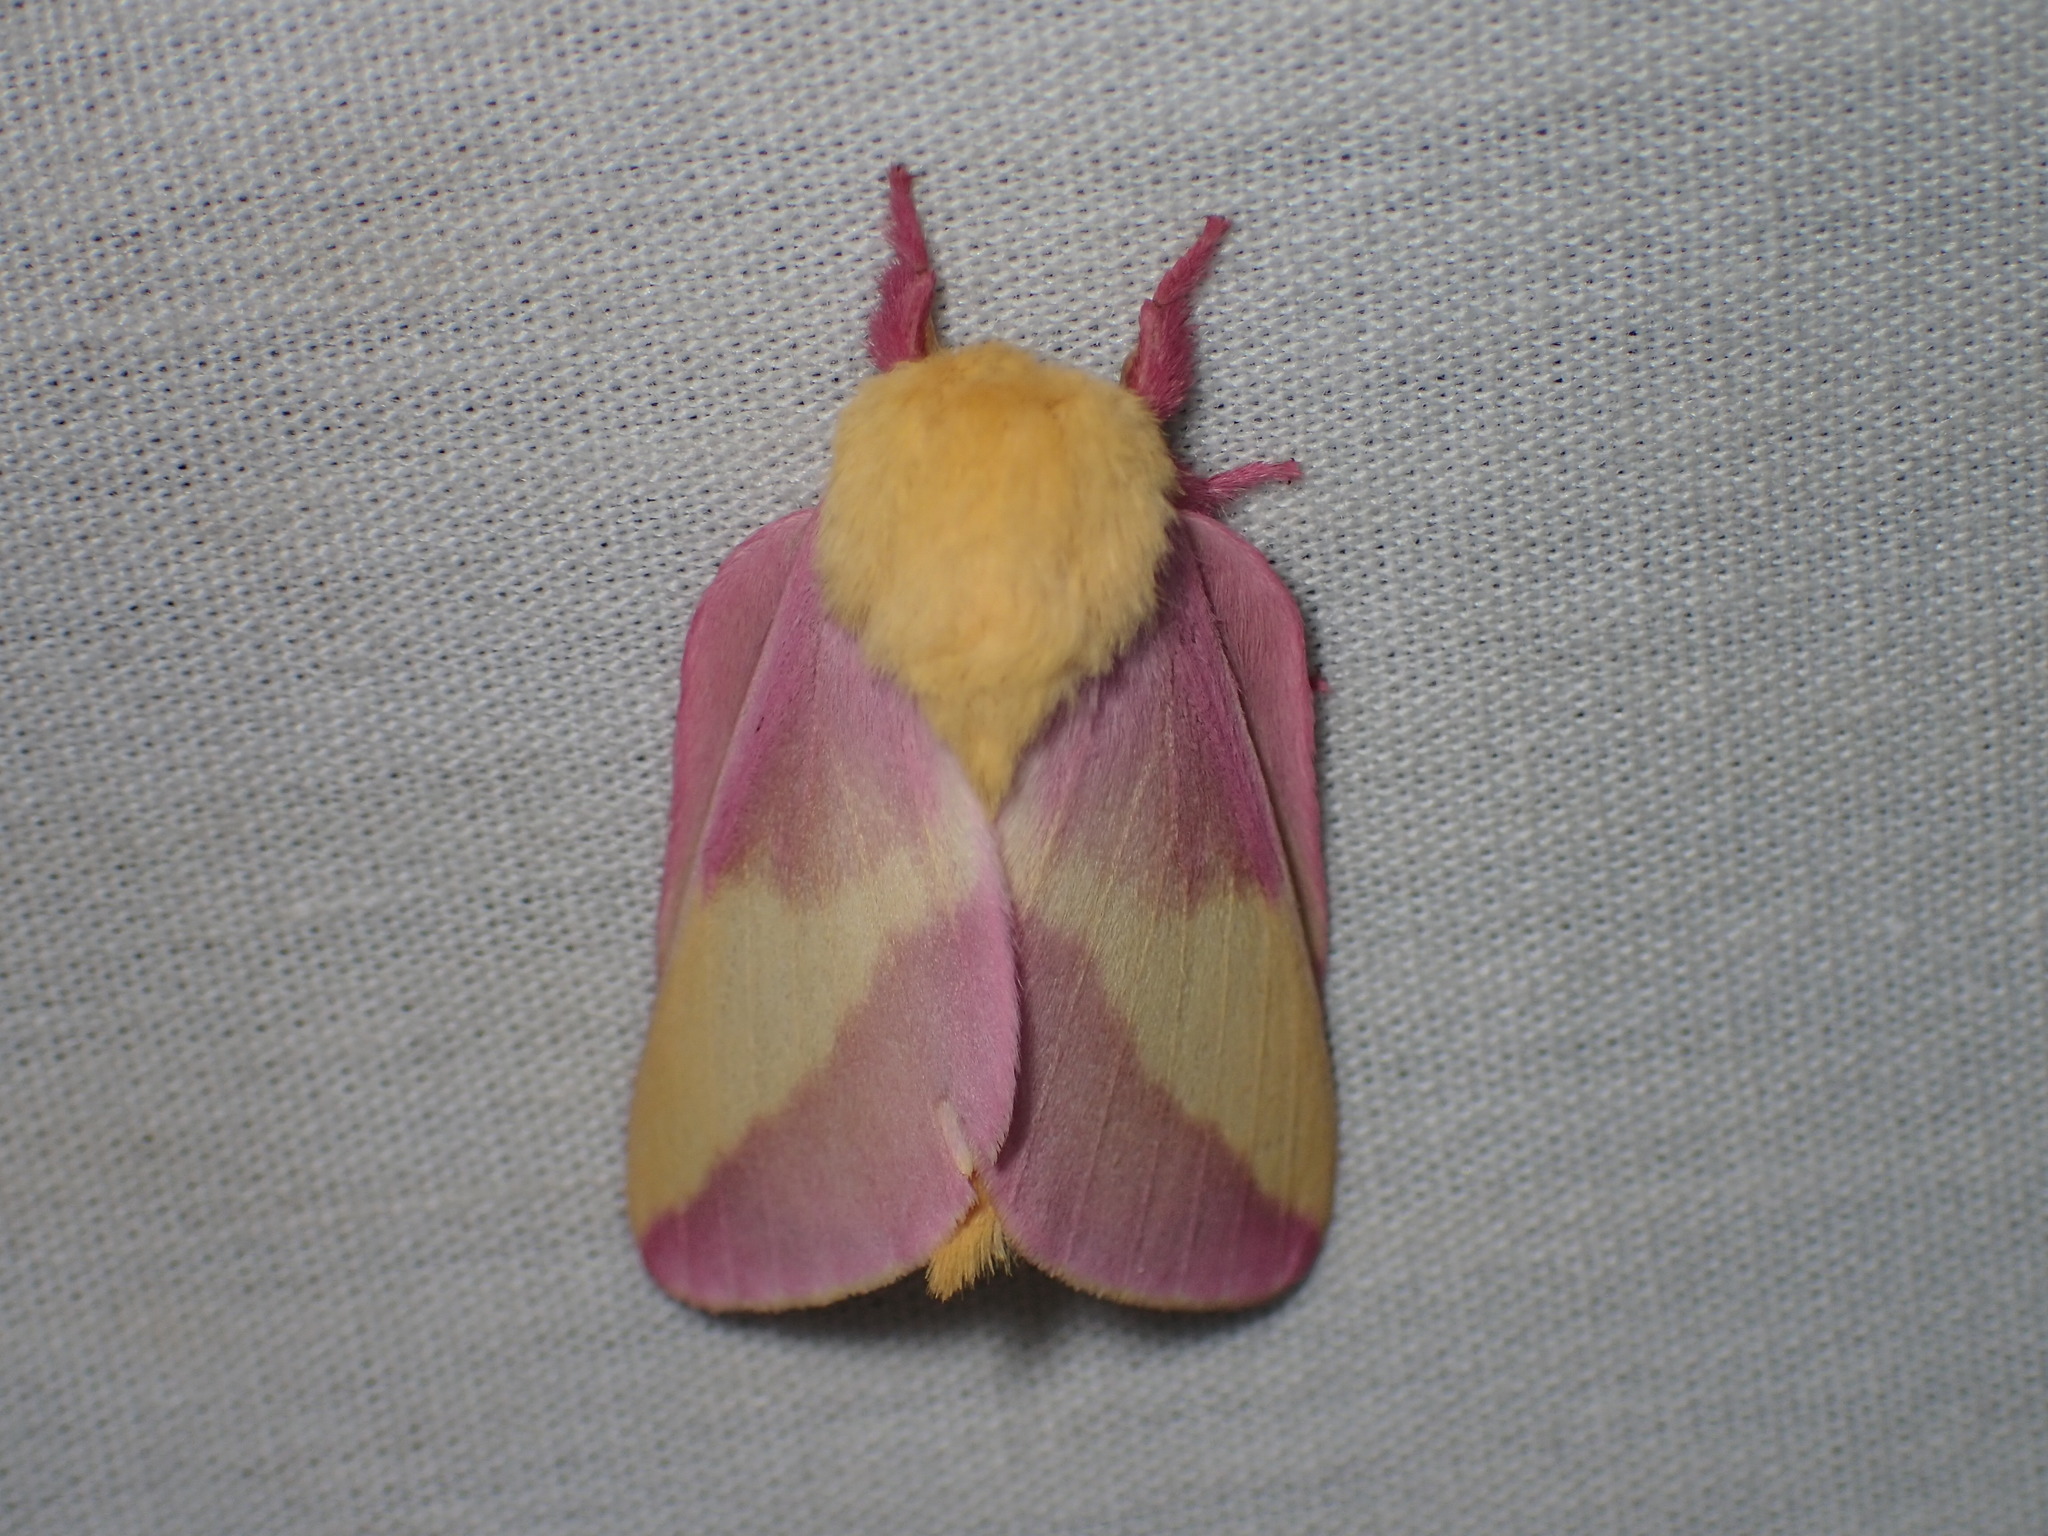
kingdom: Animalia
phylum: Arthropoda
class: Insecta
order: Lepidoptera
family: Saturniidae
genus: Dryocampa
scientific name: Dryocampa rubicunda
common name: Rosy maple moth
